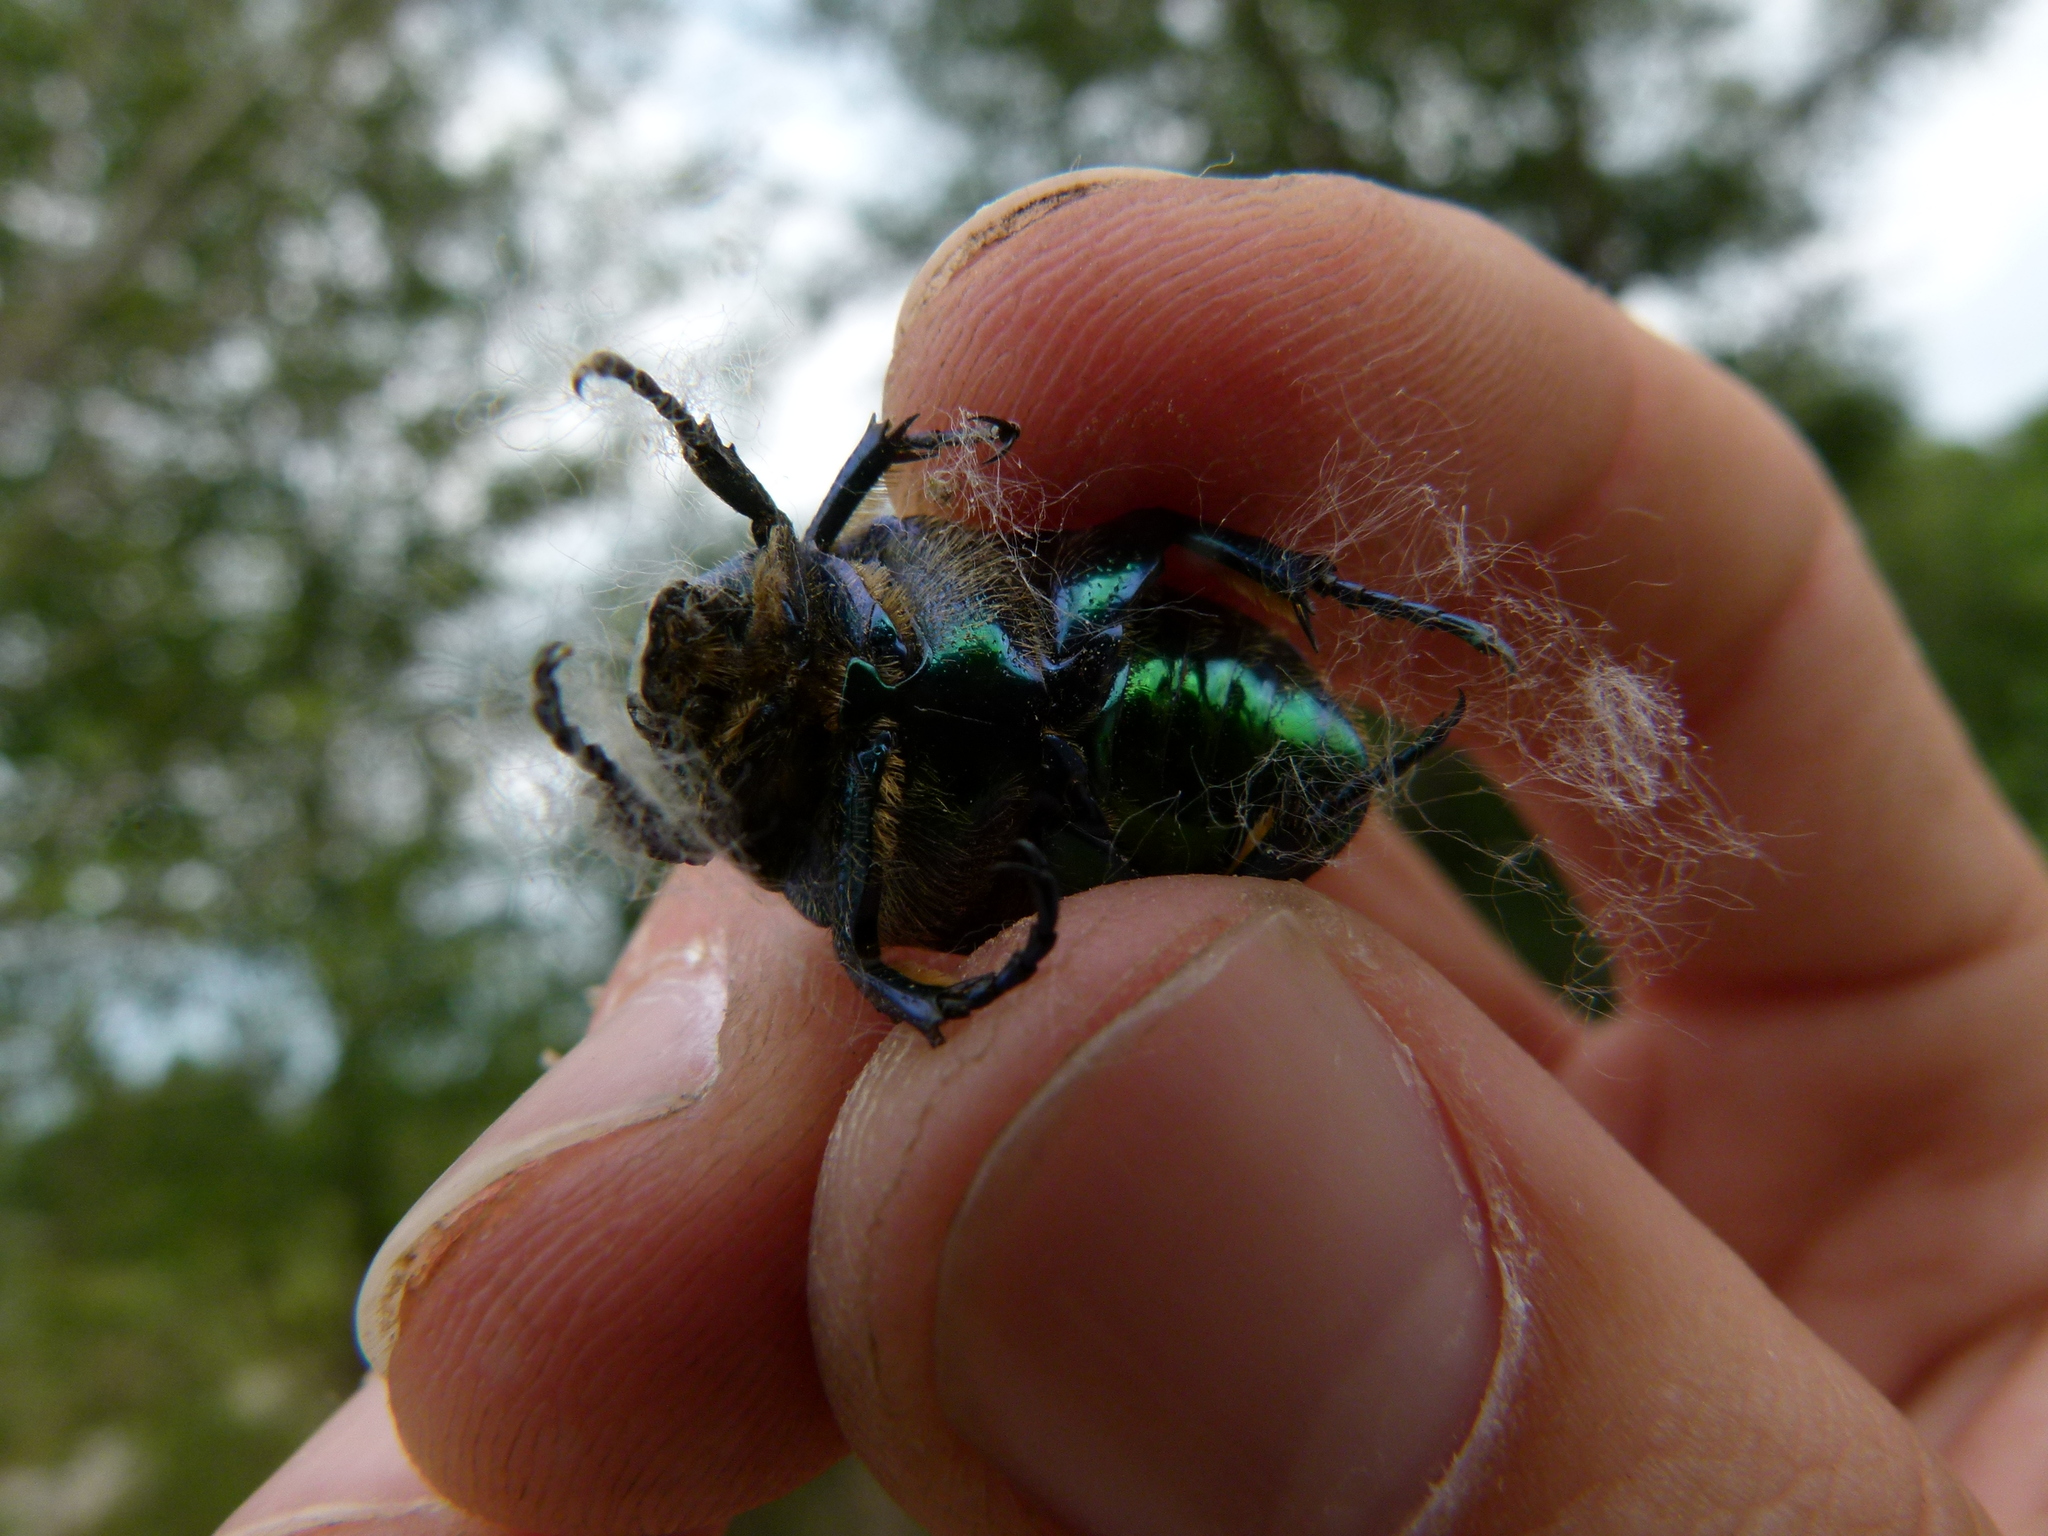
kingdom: Animalia
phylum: Arthropoda
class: Insecta
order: Coleoptera
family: Scarabaeidae
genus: Protaetia
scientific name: Protaetia affinis
